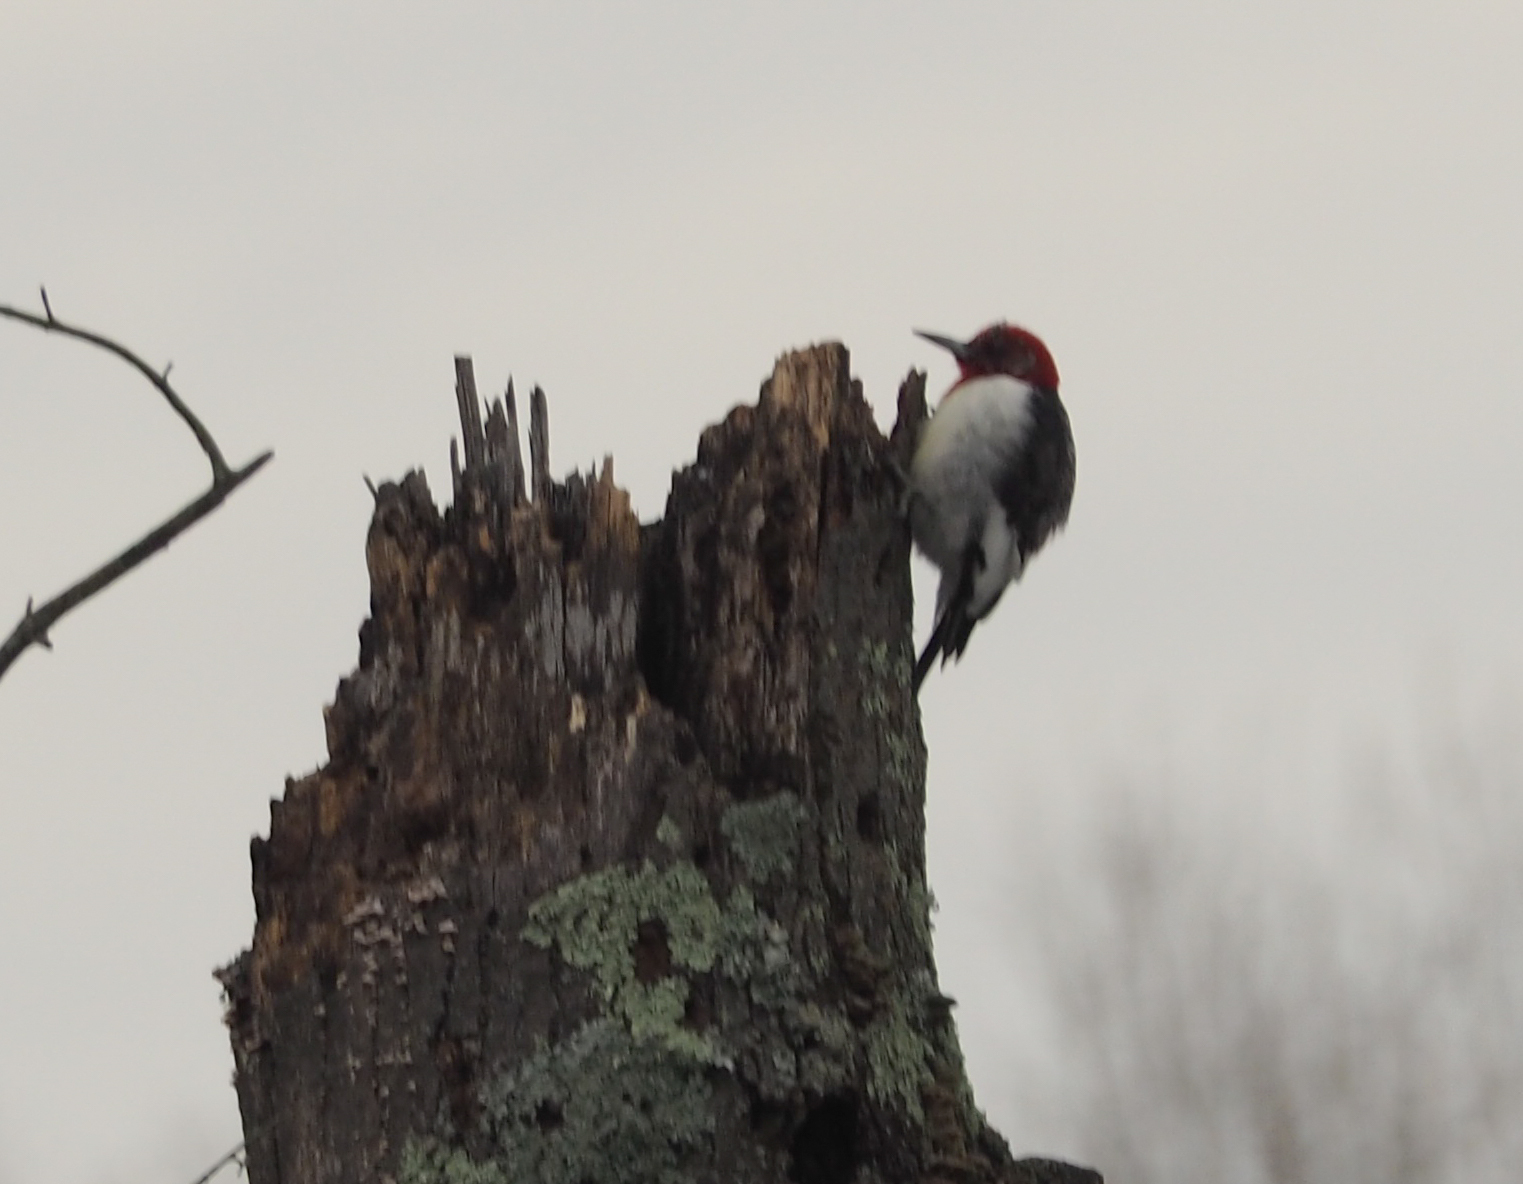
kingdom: Animalia
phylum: Chordata
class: Aves
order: Piciformes
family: Picidae
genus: Melanerpes
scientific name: Melanerpes erythrocephalus
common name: Red-headed woodpecker
